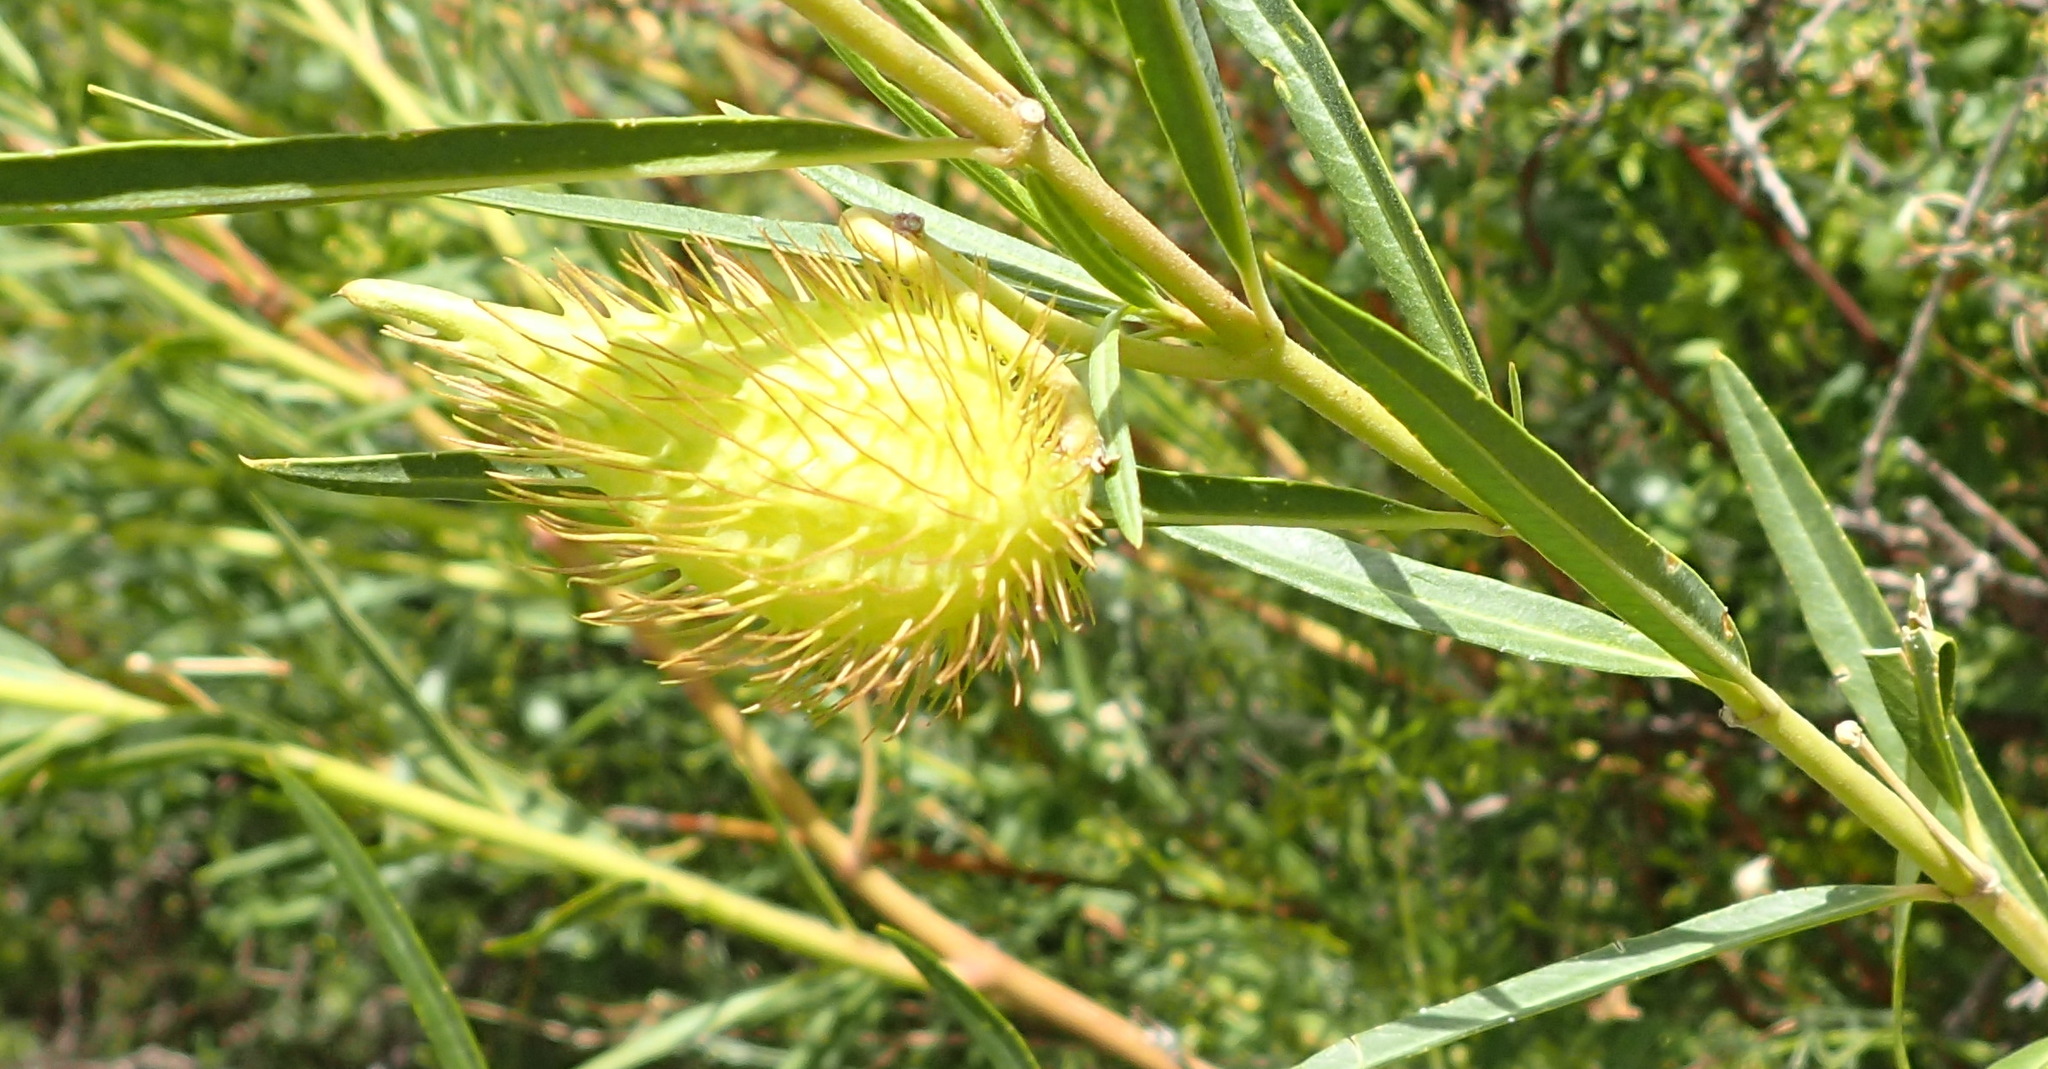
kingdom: Plantae
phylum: Tracheophyta
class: Magnoliopsida
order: Gentianales
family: Apocynaceae
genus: Gomphocarpus
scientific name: Gomphocarpus fruticosus
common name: Milkweed
